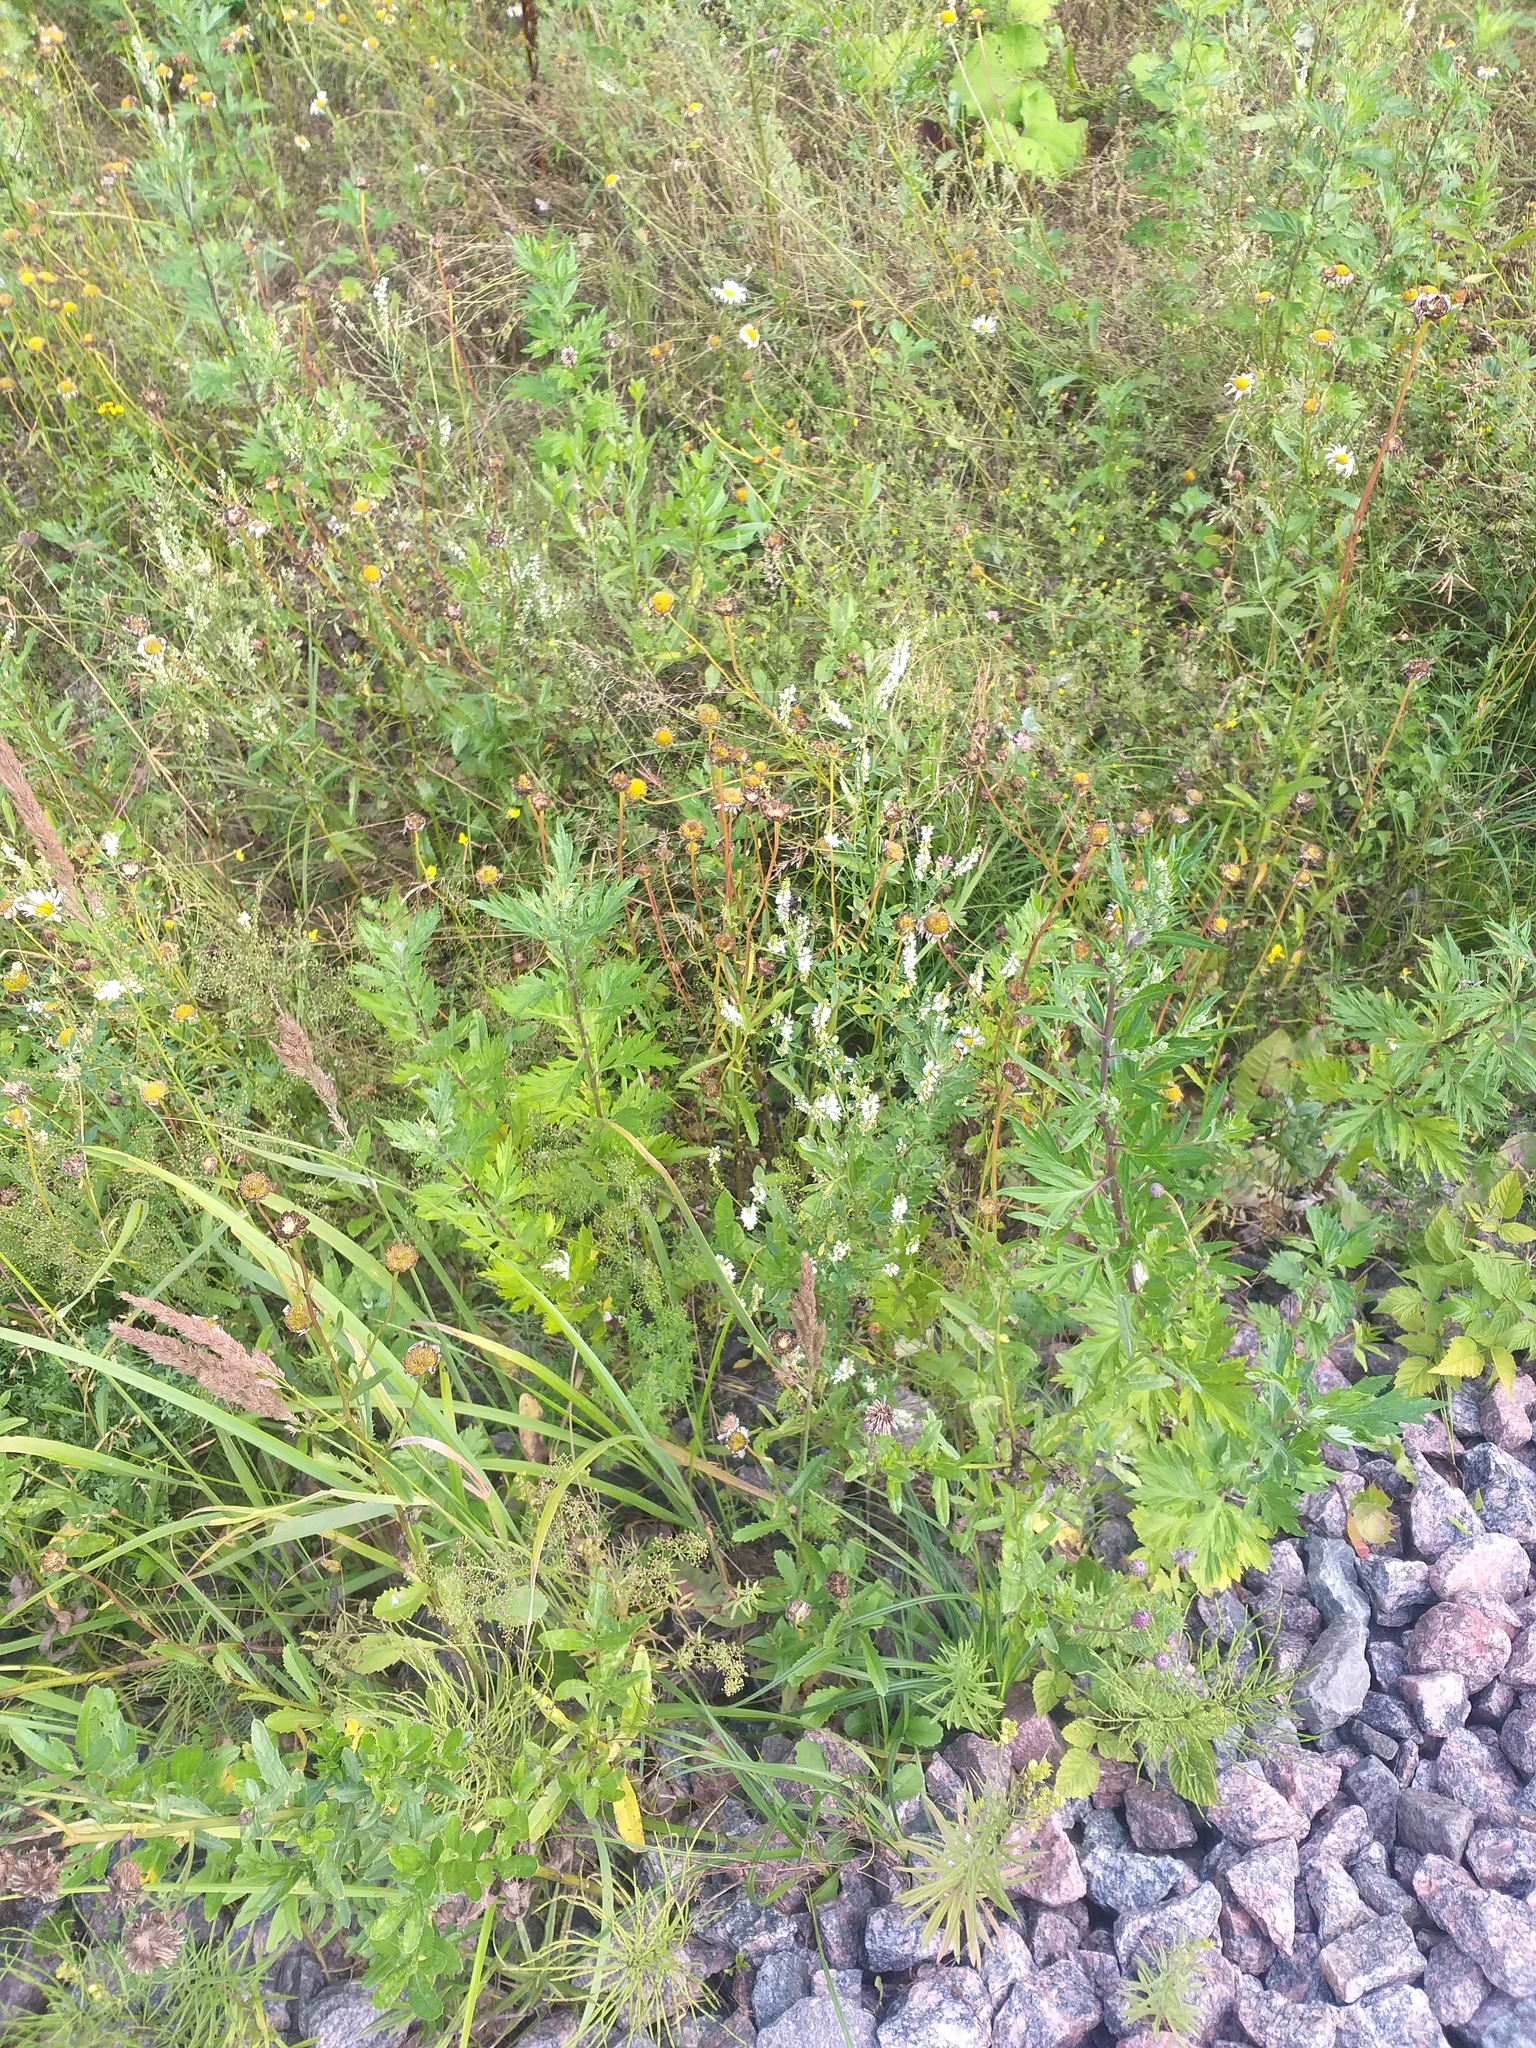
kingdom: Plantae
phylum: Tracheophyta
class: Magnoliopsida
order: Fabales
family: Fabaceae
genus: Melilotus
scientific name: Melilotus albus
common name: White melilot
